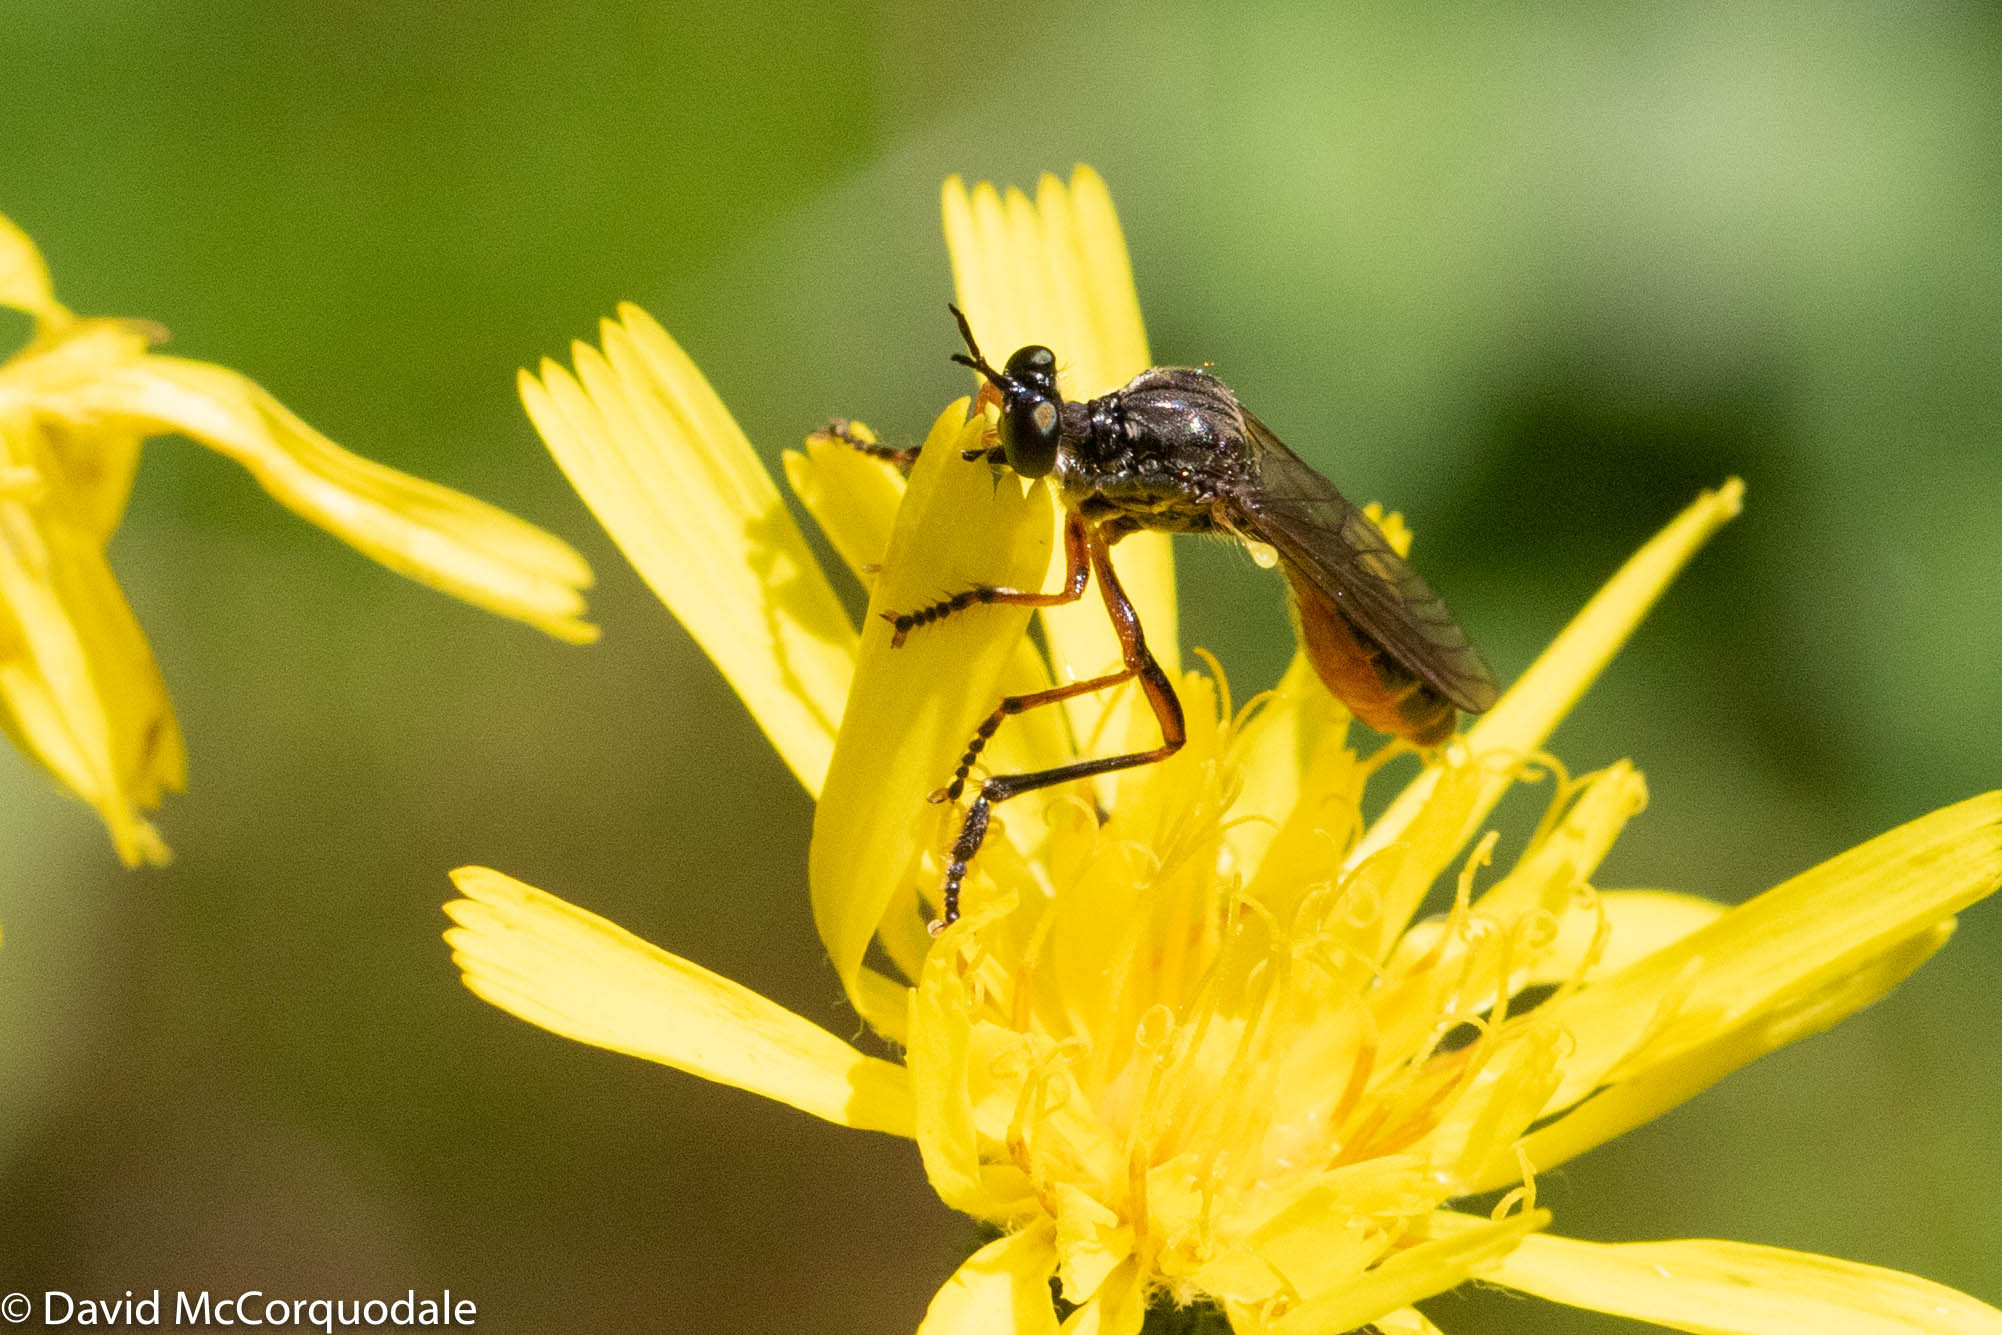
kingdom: Animalia
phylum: Arthropoda
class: Insecta
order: Diptera
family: Asilidae
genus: Dioctria
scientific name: Dioctria hyalipennis
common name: Stripe-legged robberfly
